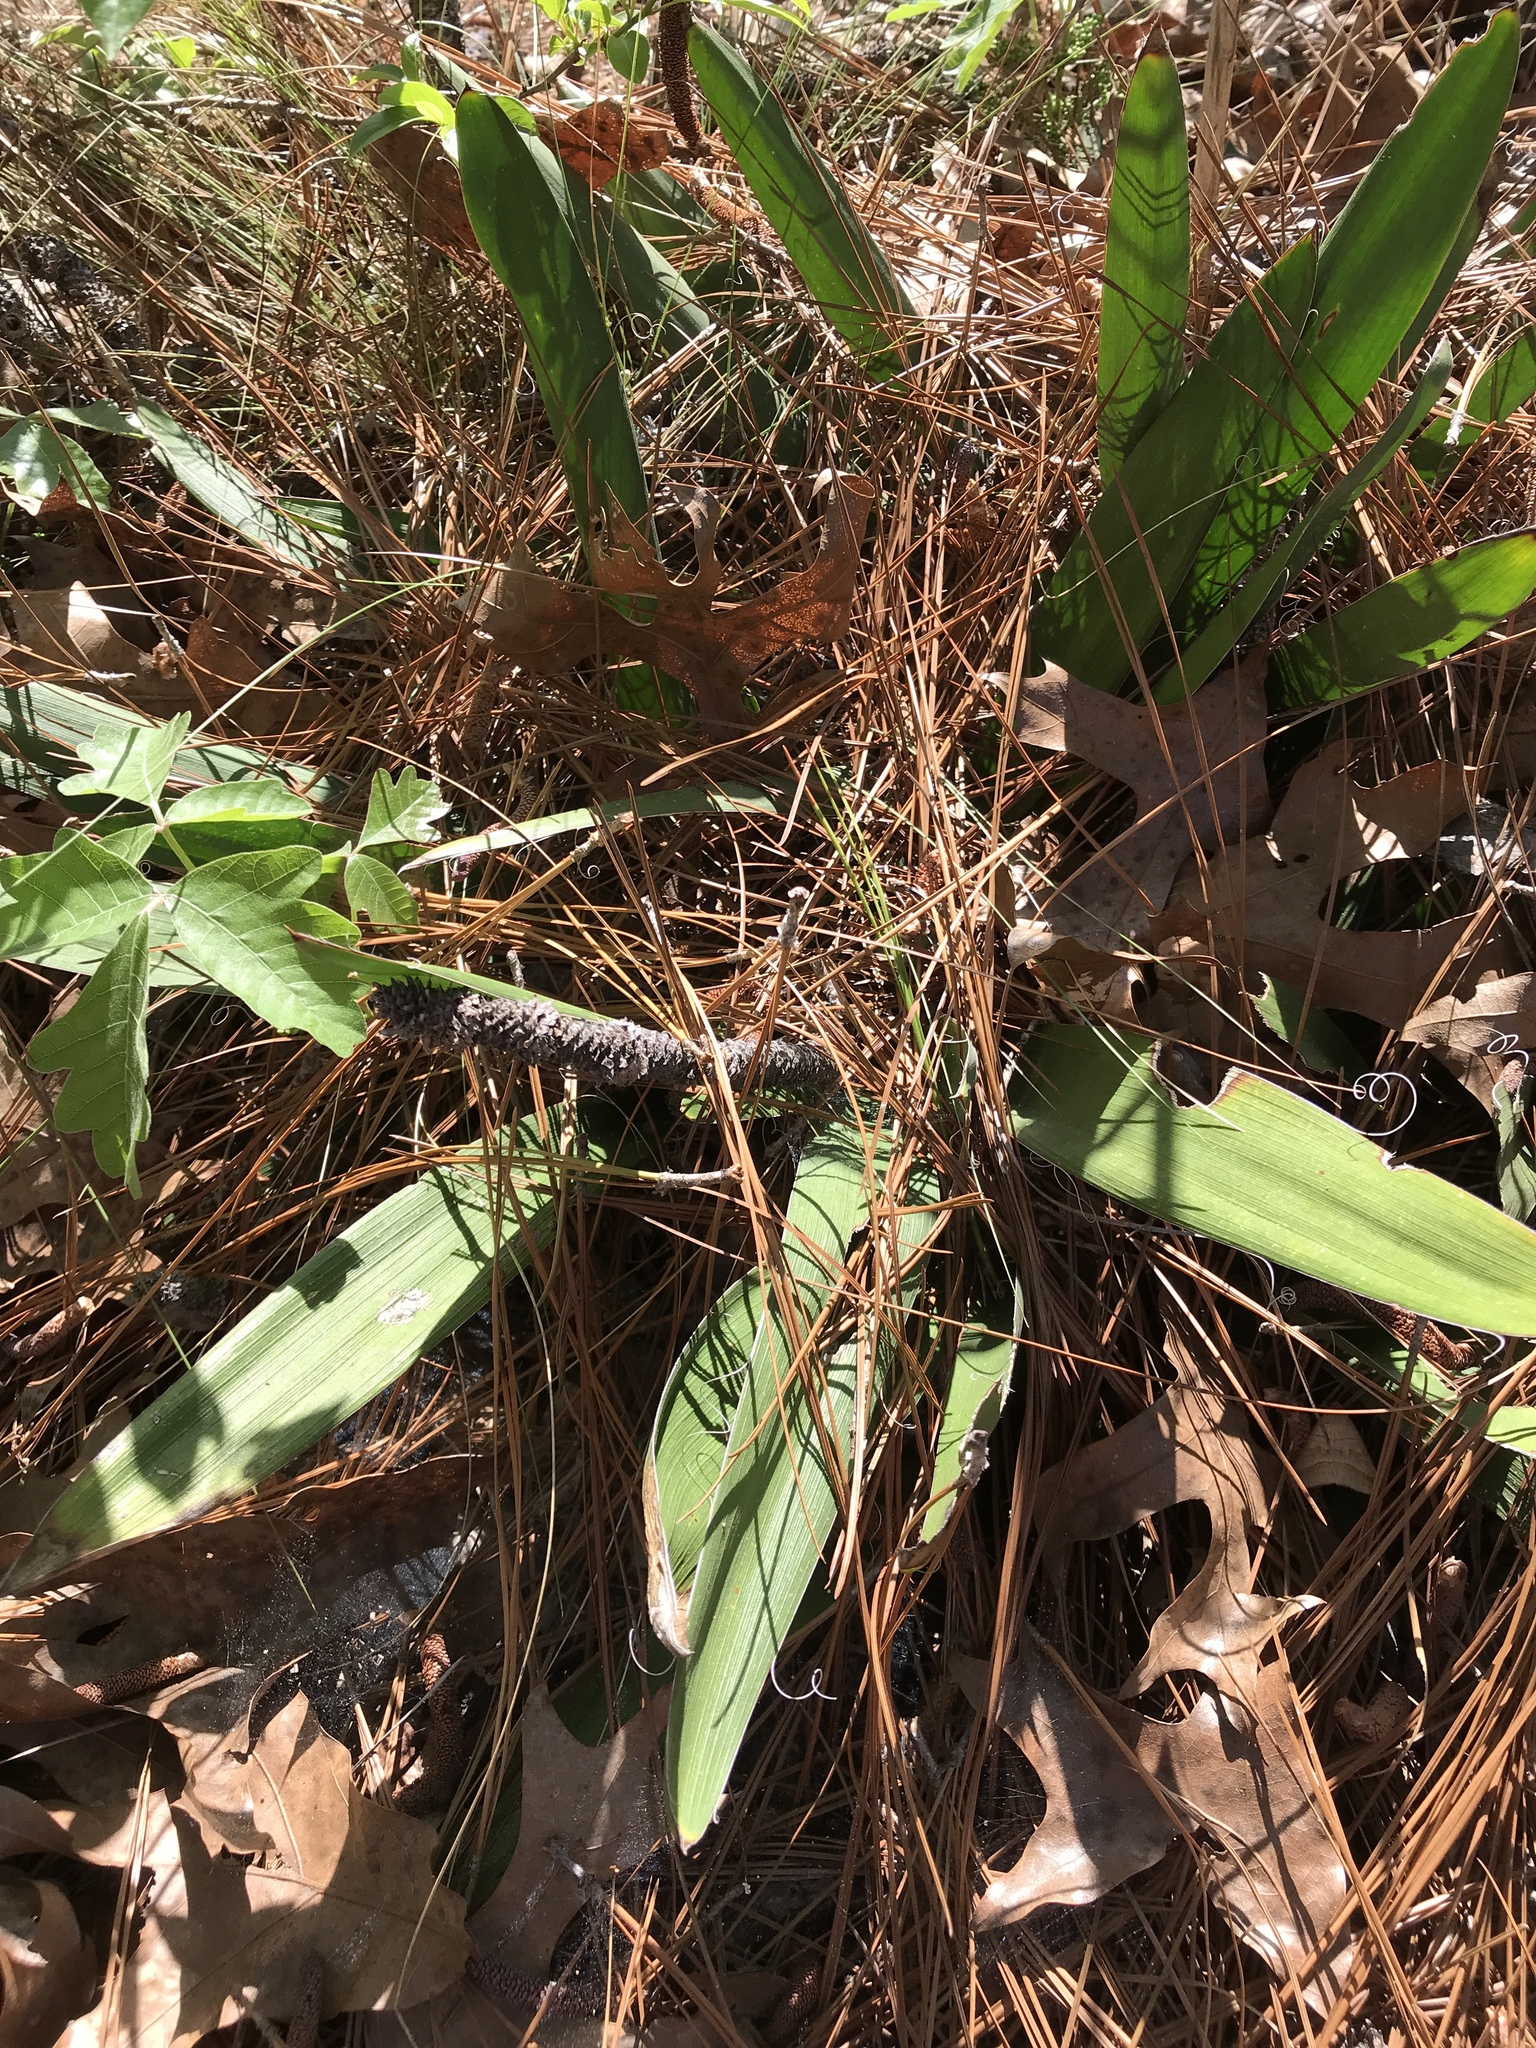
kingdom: Plantae
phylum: Tracheophyta
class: Liliopsida
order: Asparagales
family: Asparagaceae
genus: Yucca
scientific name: Yucca filamentosa
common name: Adam's-needle
